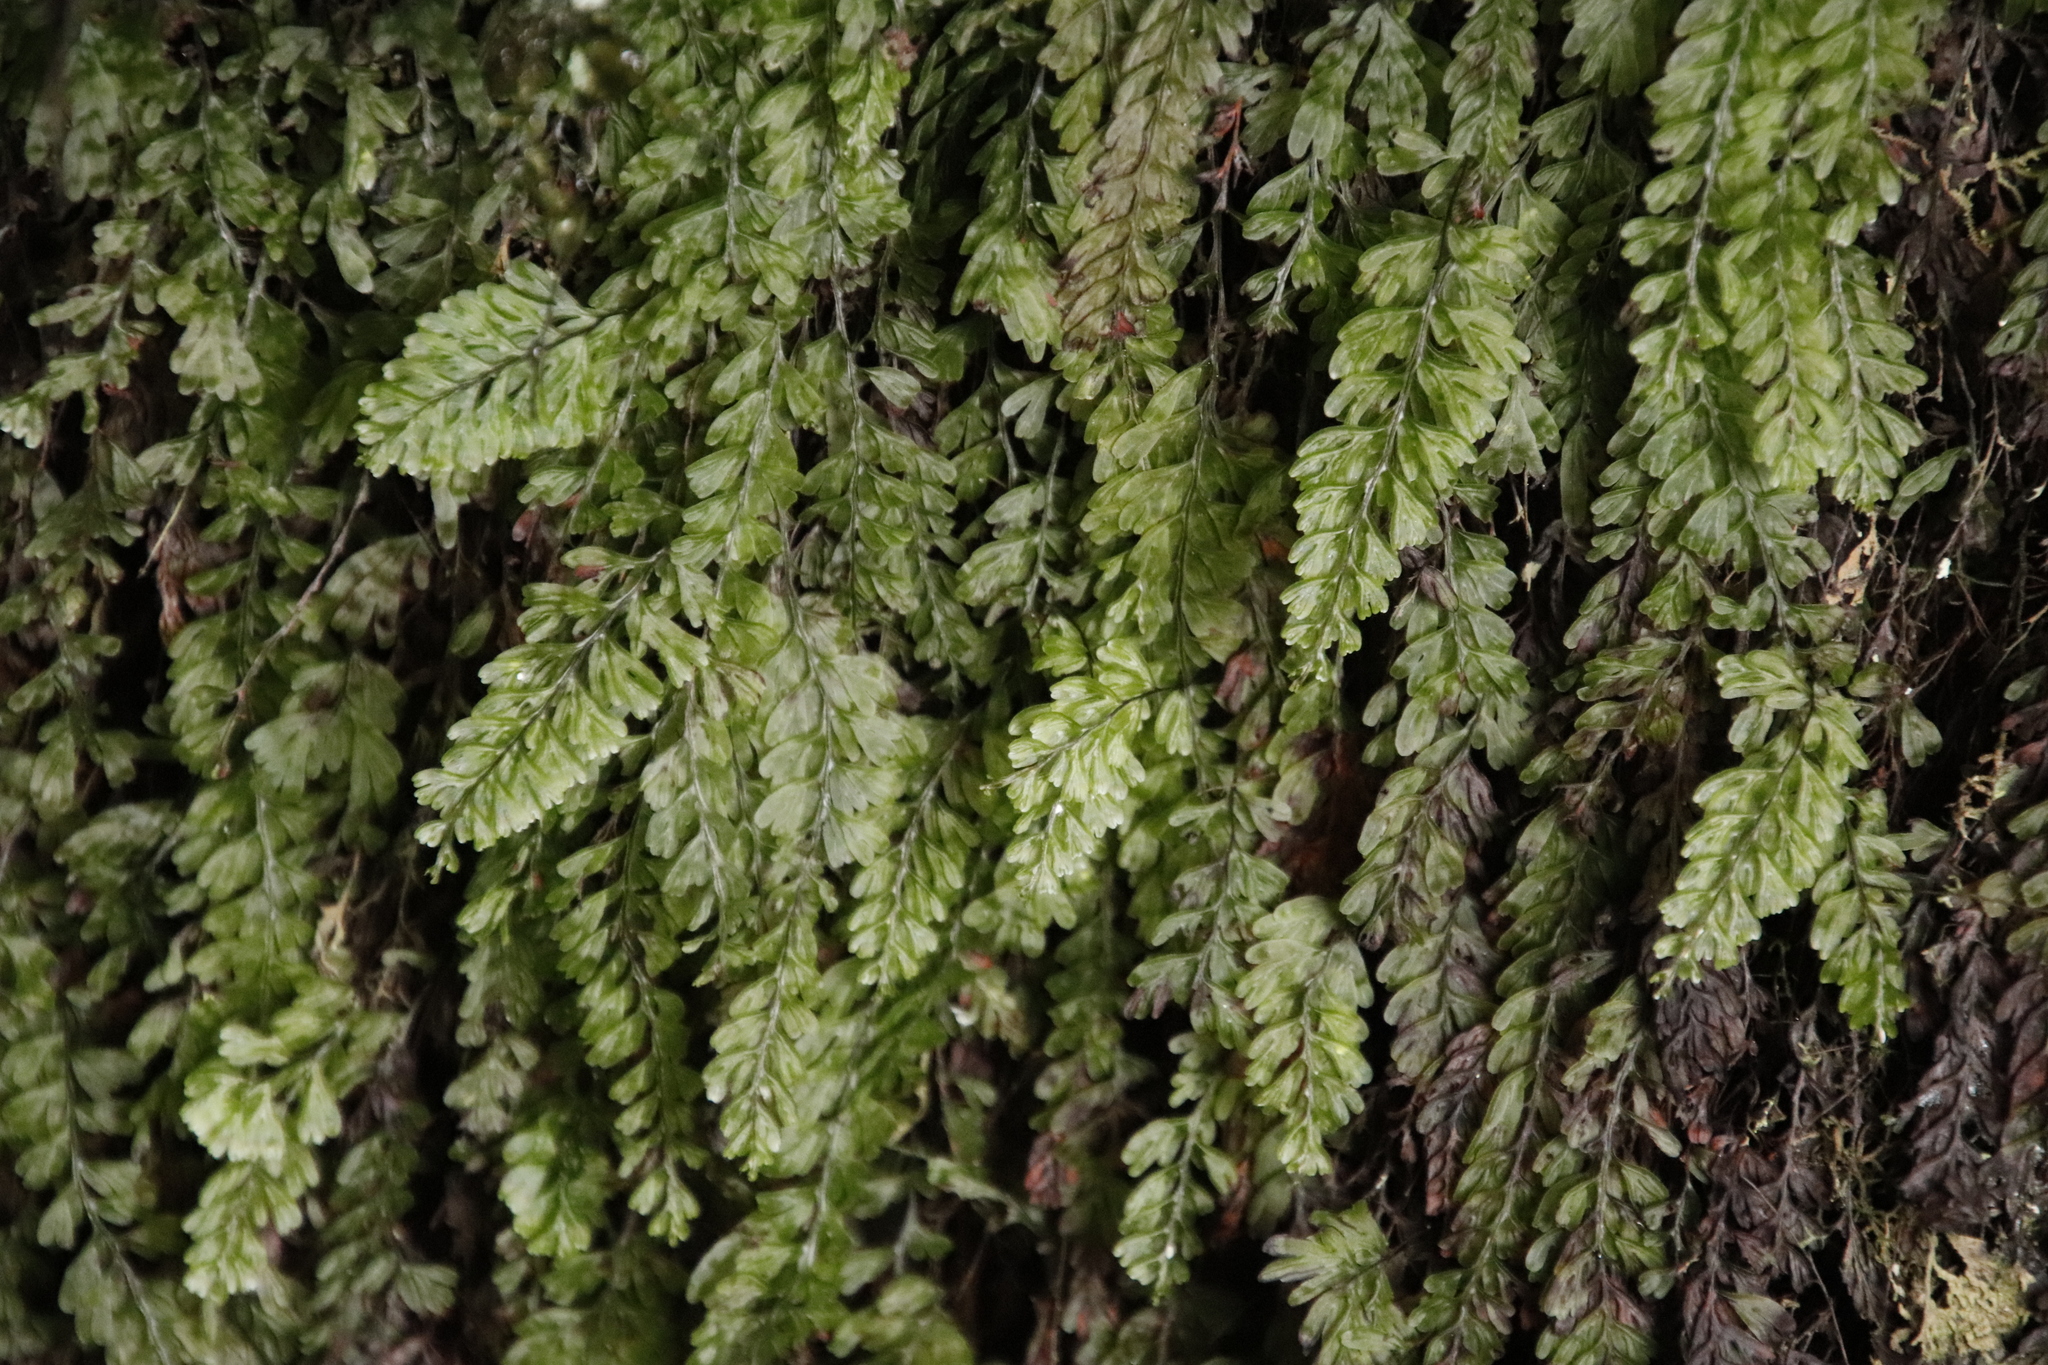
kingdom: Plantae
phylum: Tracheophyta
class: Polypodiopsida
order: Hymenophyllales
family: Hymenophyllaceae
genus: Hymenophyllum
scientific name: Hymenophyllum capense
